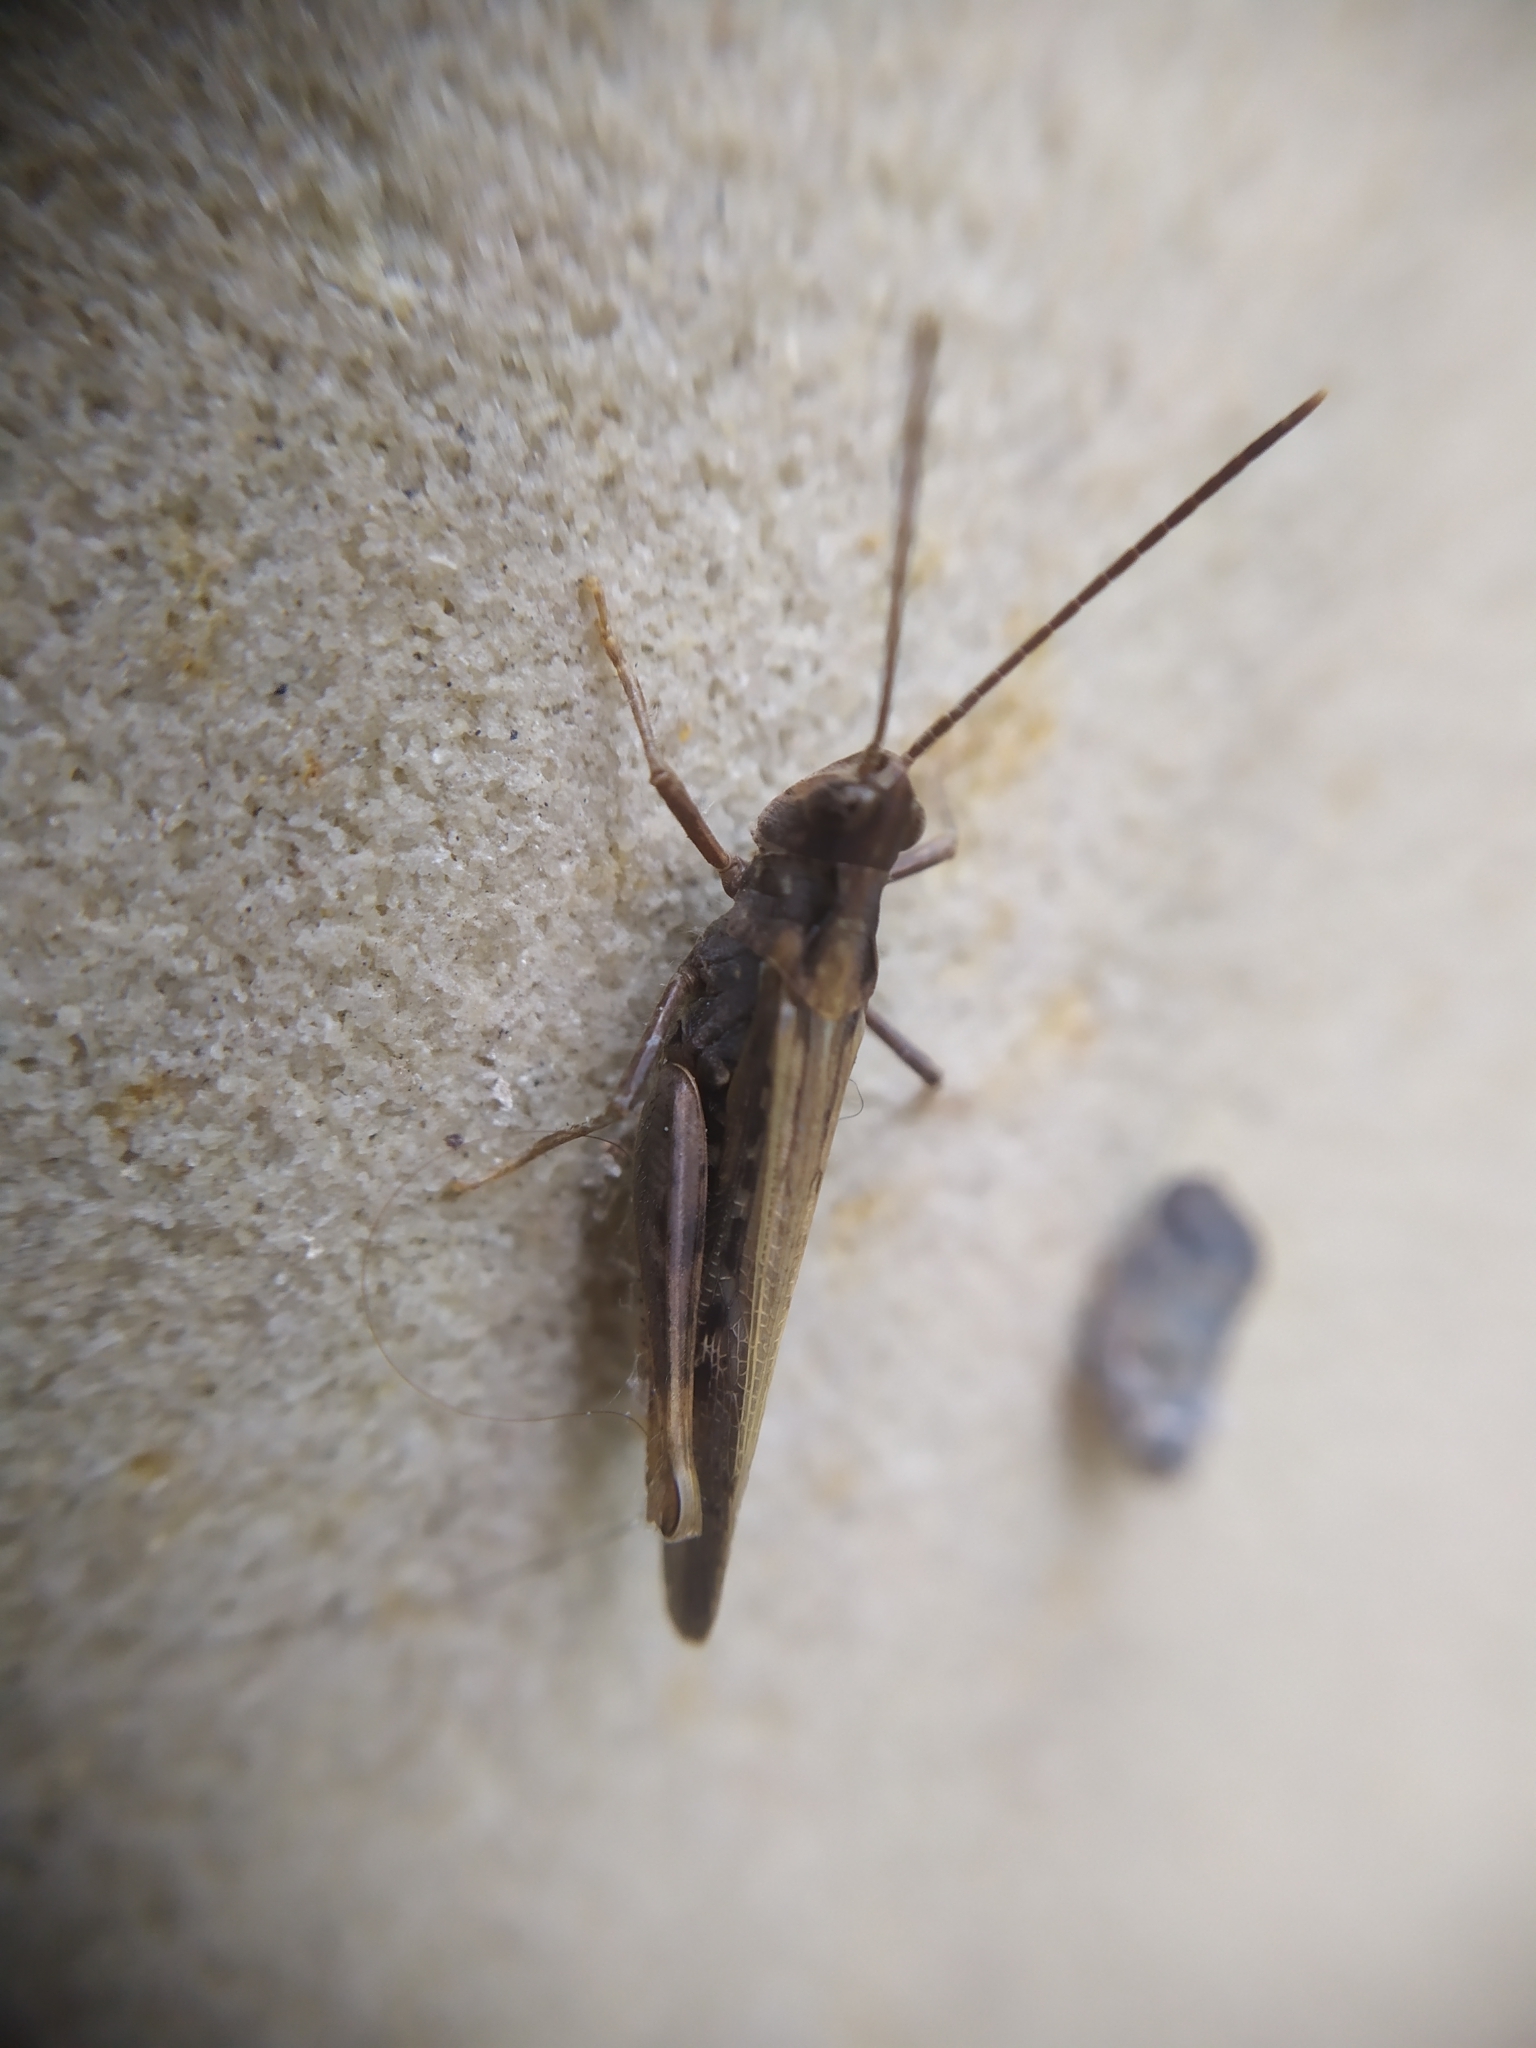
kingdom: Animalia
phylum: Arthropoda
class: Insecta
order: Orthoptera
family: Acrididae
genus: Chorthippus
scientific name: Chorthippus brunneus
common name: Field grasshopper
